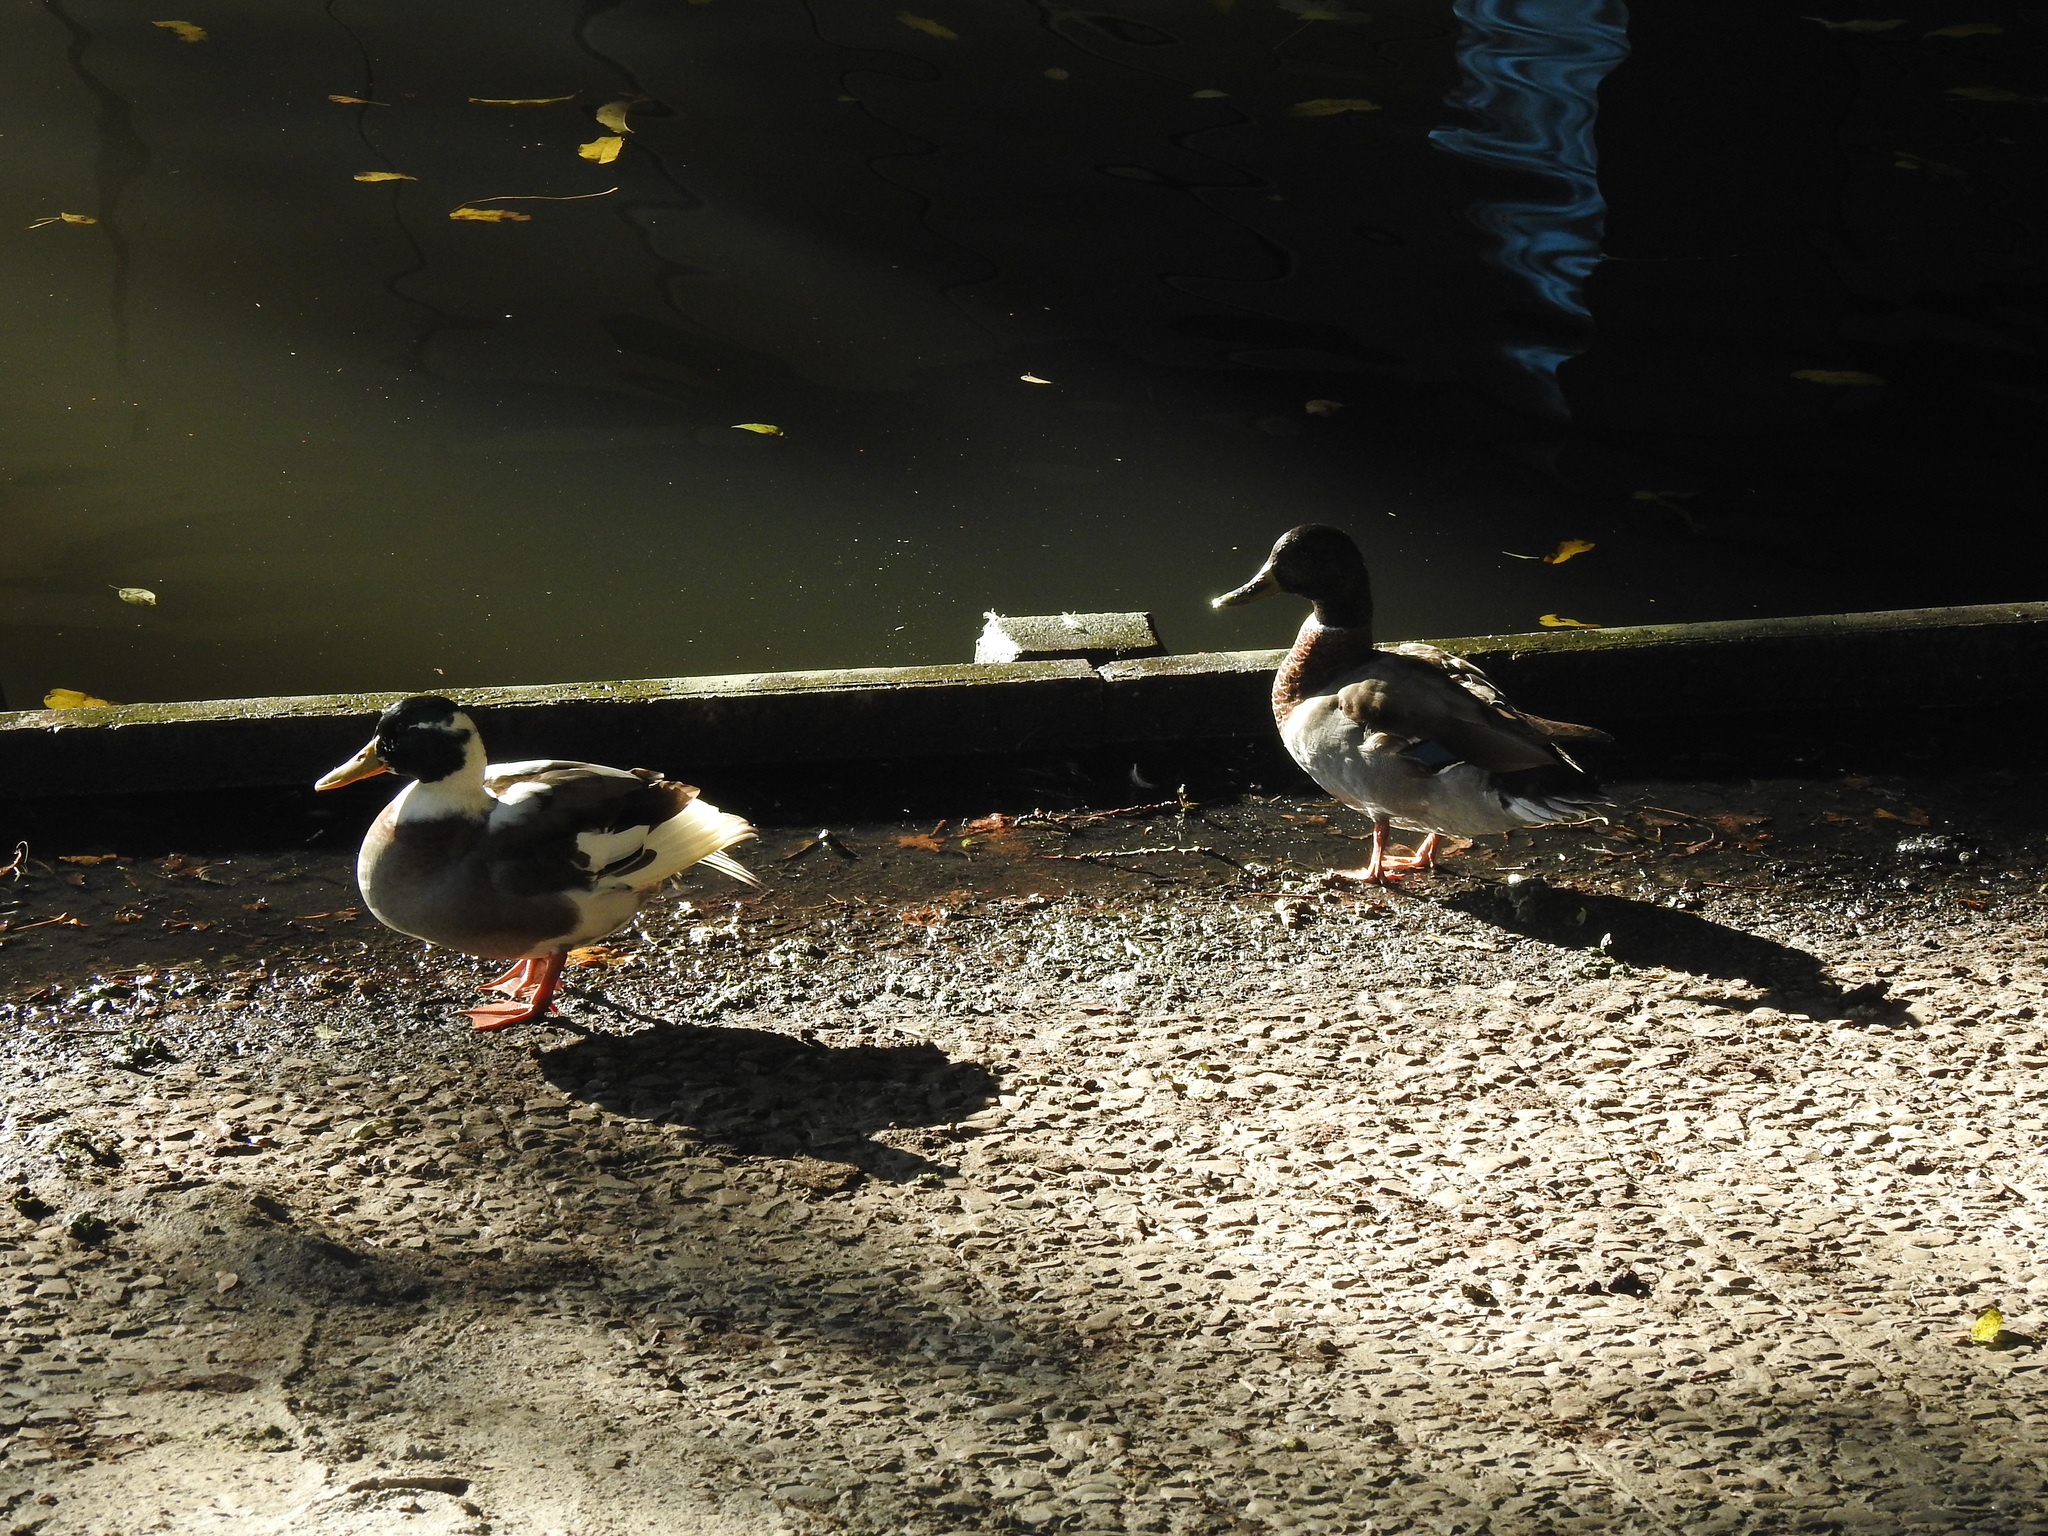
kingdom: Animalia
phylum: Chordata
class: Aves
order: Anseriformes
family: Anatidae
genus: Anas
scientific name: Anas platyrhynchos
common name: Mallard
